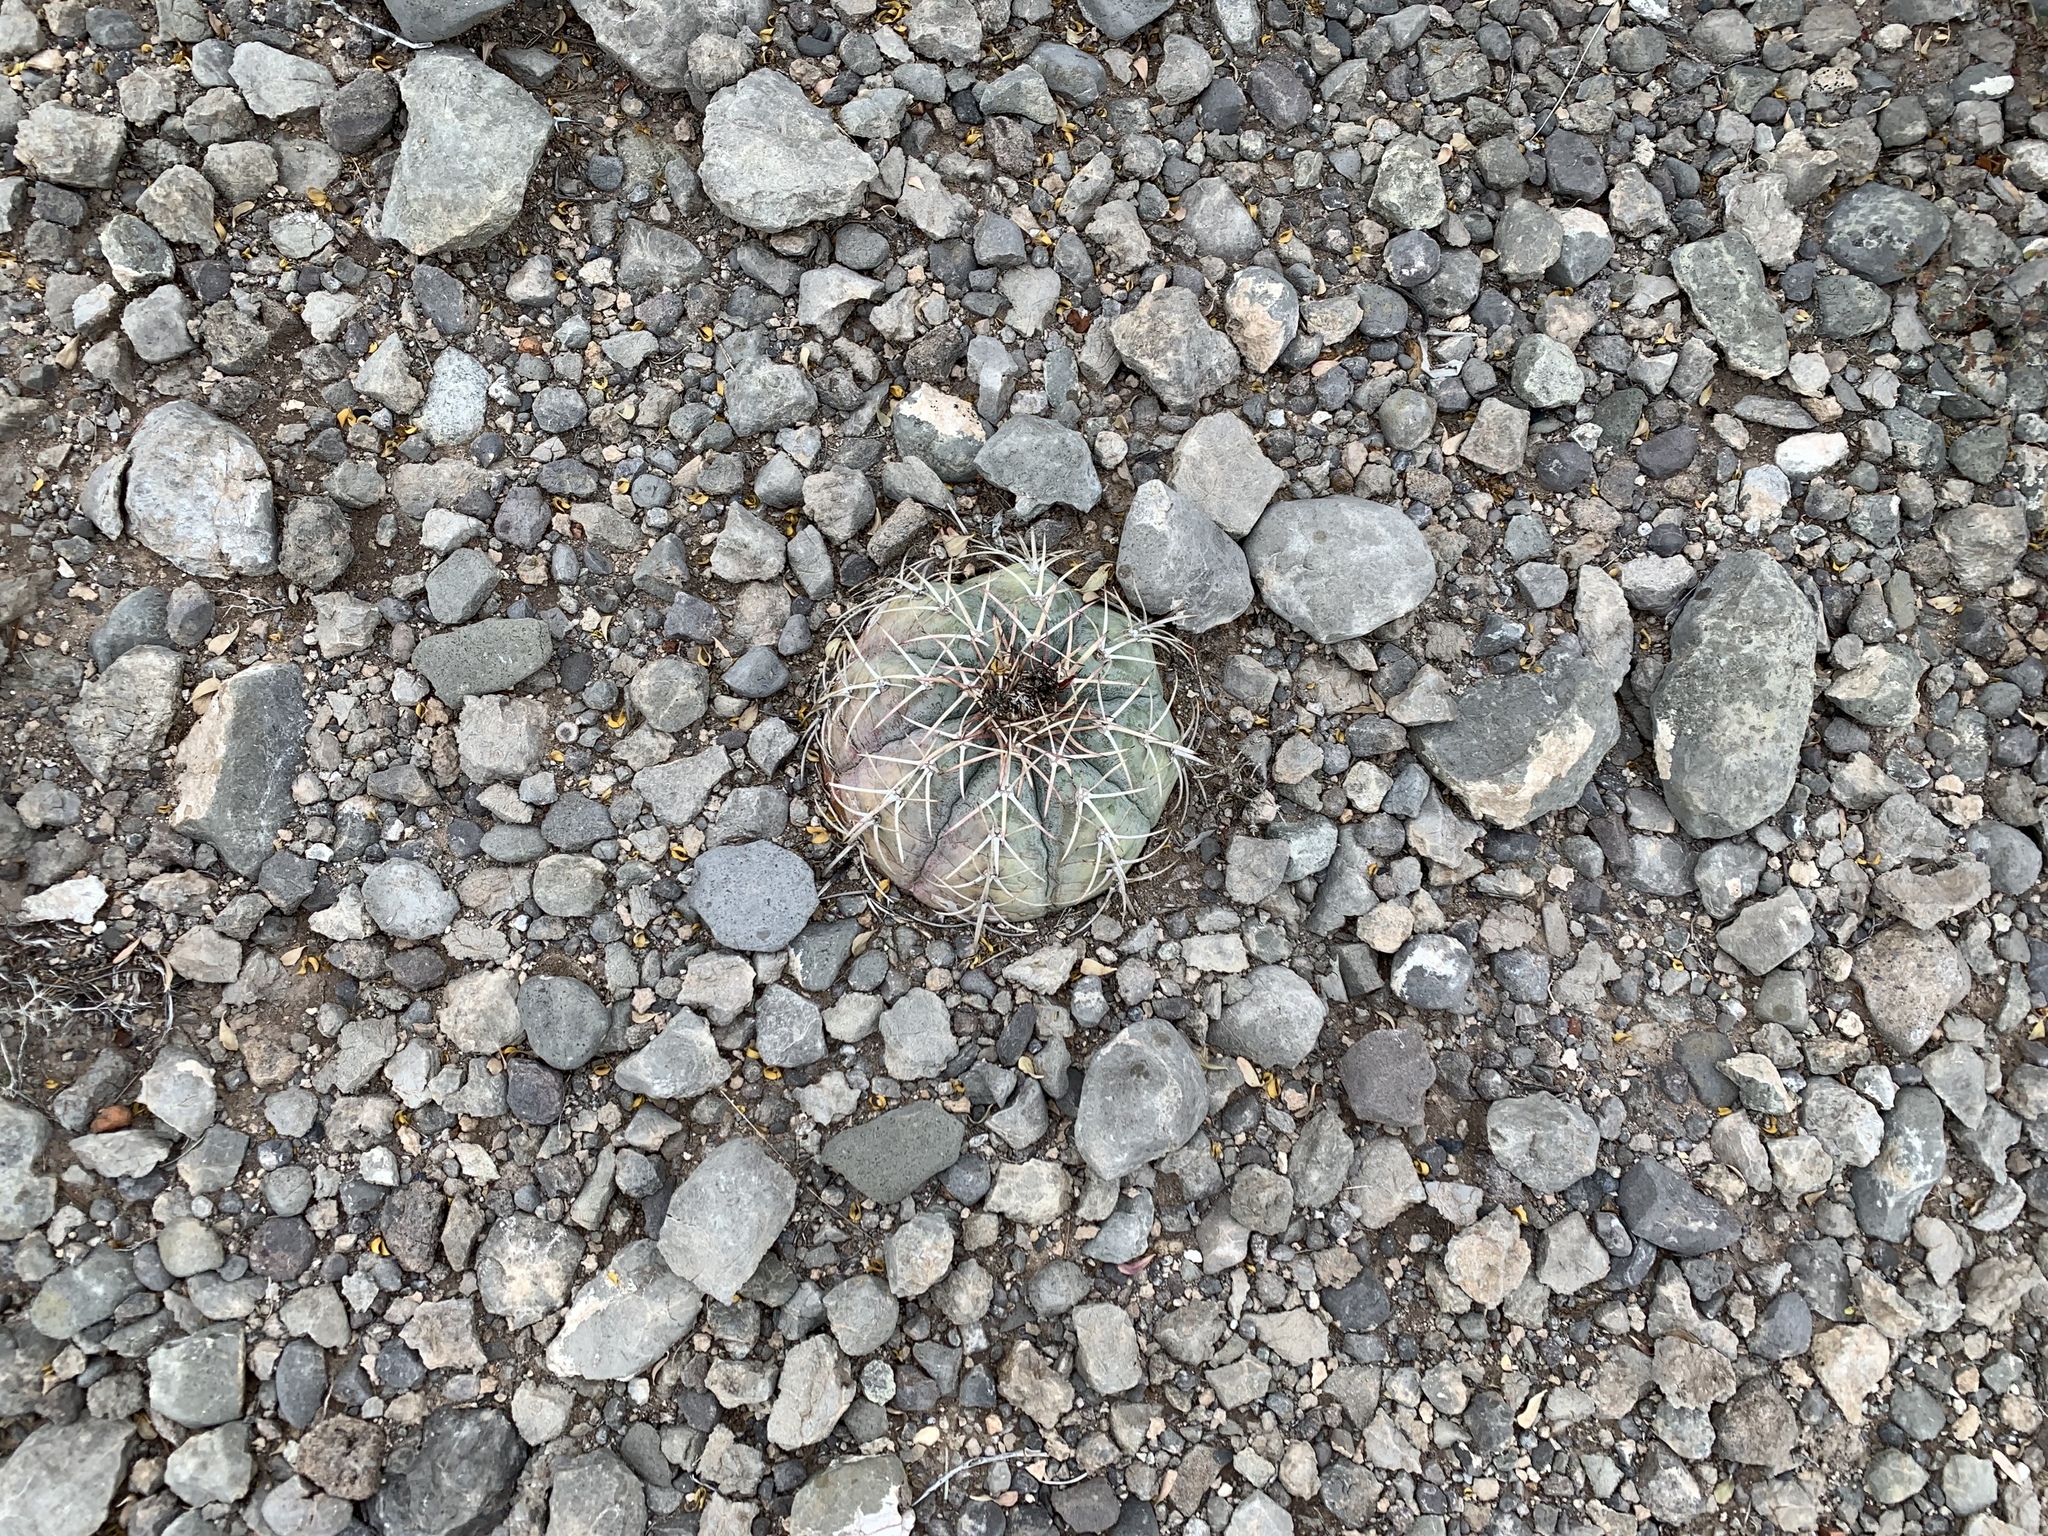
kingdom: Plantae
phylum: Tracheophyta
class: Magnoliopsida
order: Caryophyllales
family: Cactaceae
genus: Echinocactus
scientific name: Echinocactus horizonthalonius
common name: Devilshead
